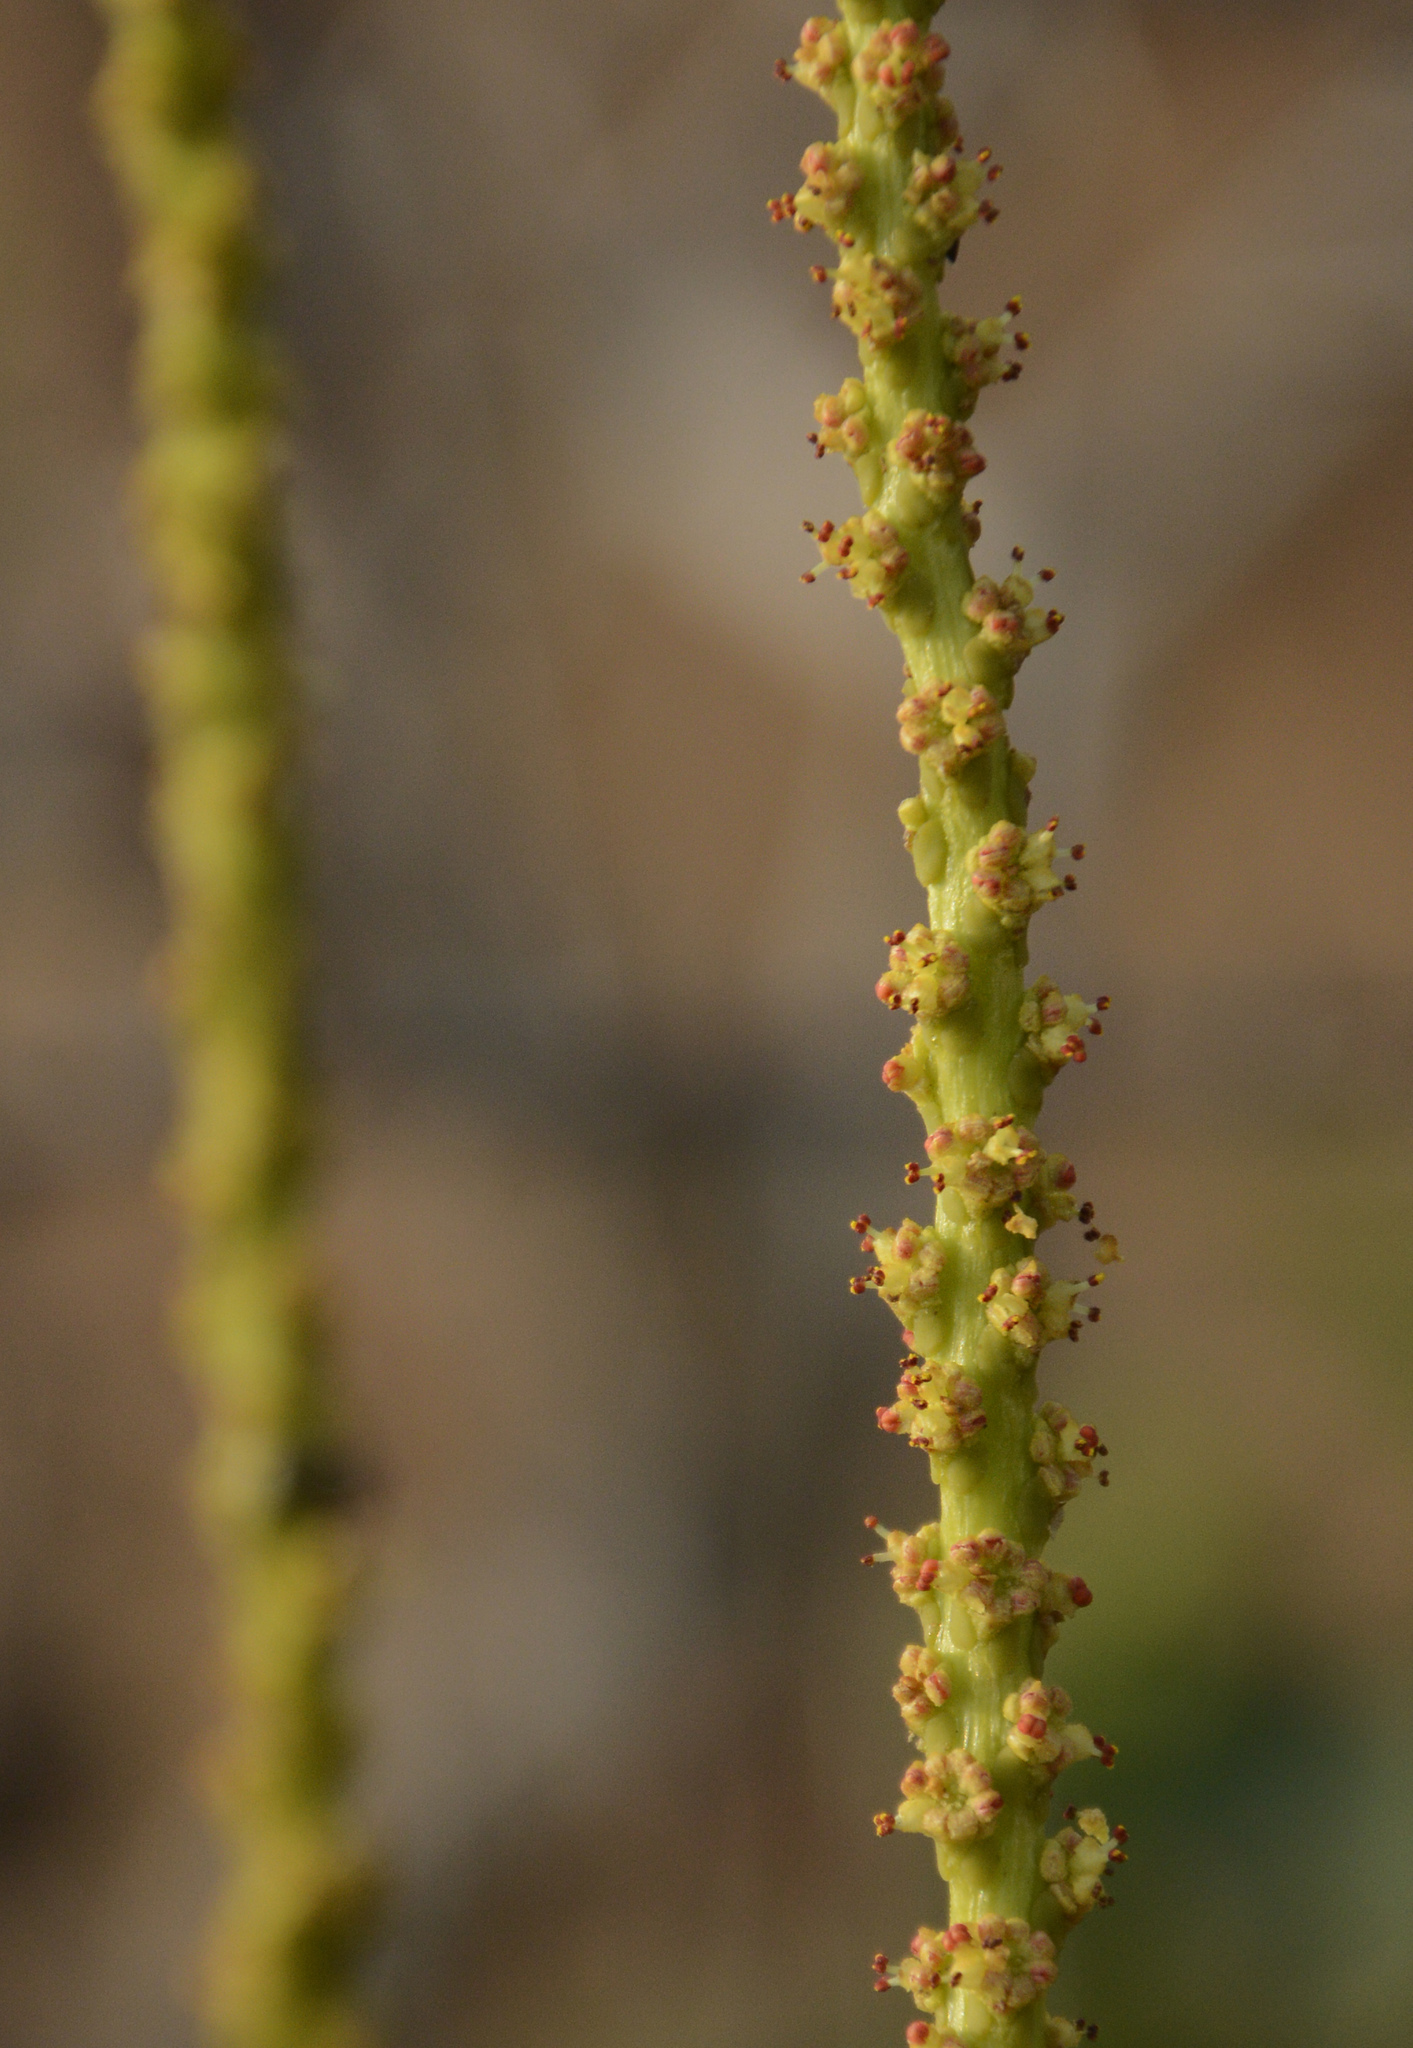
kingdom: Plantae
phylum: Tracheophyta
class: Magnoliopsida
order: Malpighiales
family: Euphorbiaceae
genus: Falconeria
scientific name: Falconeria insignis
